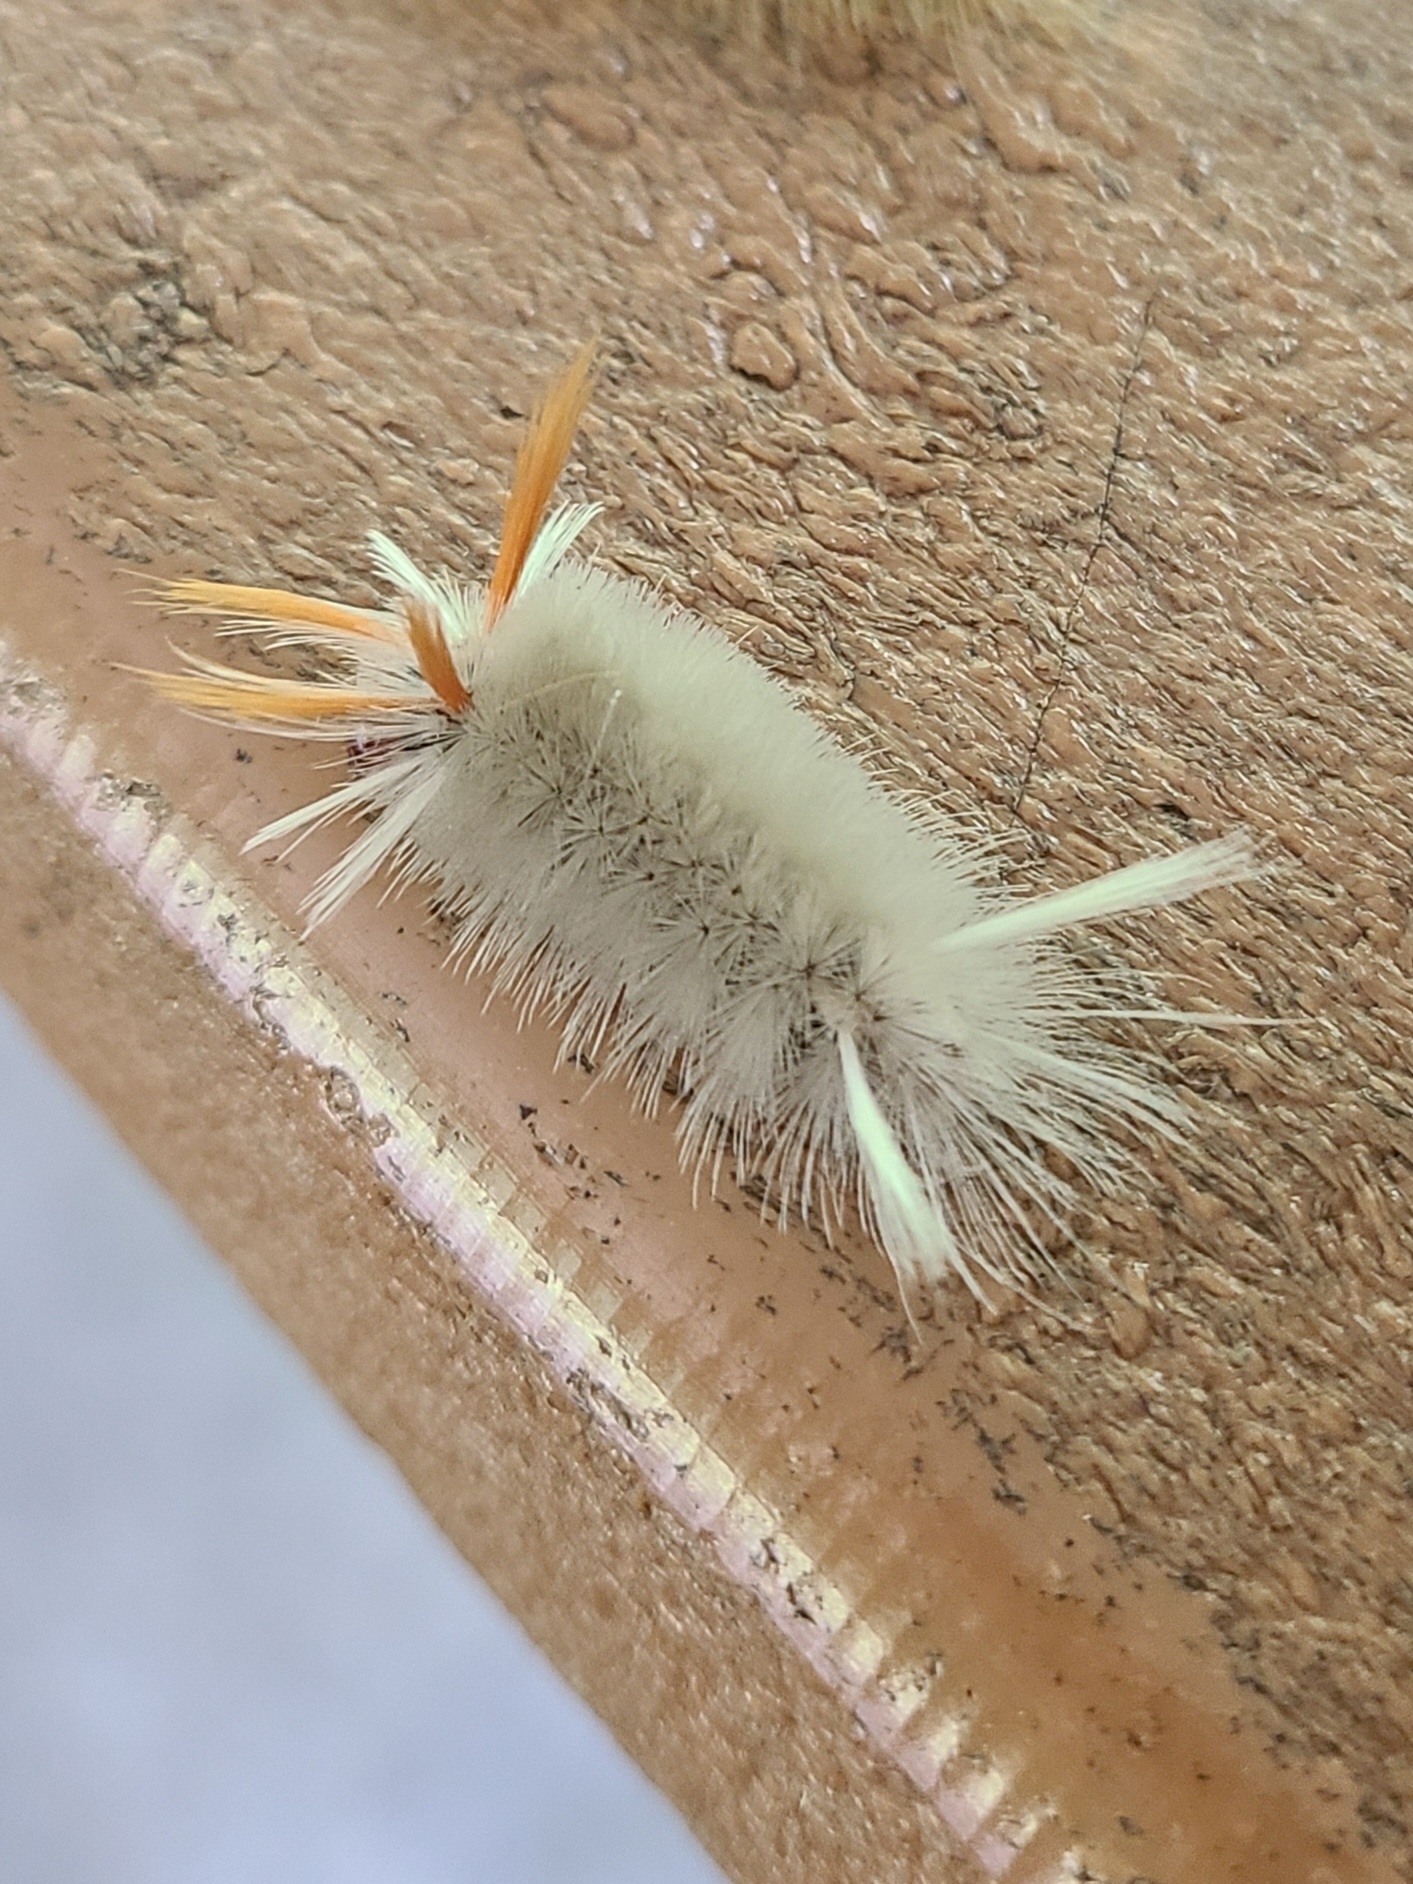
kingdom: Animalia
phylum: Arthropoda
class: Insecta
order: Lepidoptera
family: Erebidae
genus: Halysidota
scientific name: Halysidota harrisii
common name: Sycamore tussock moth
